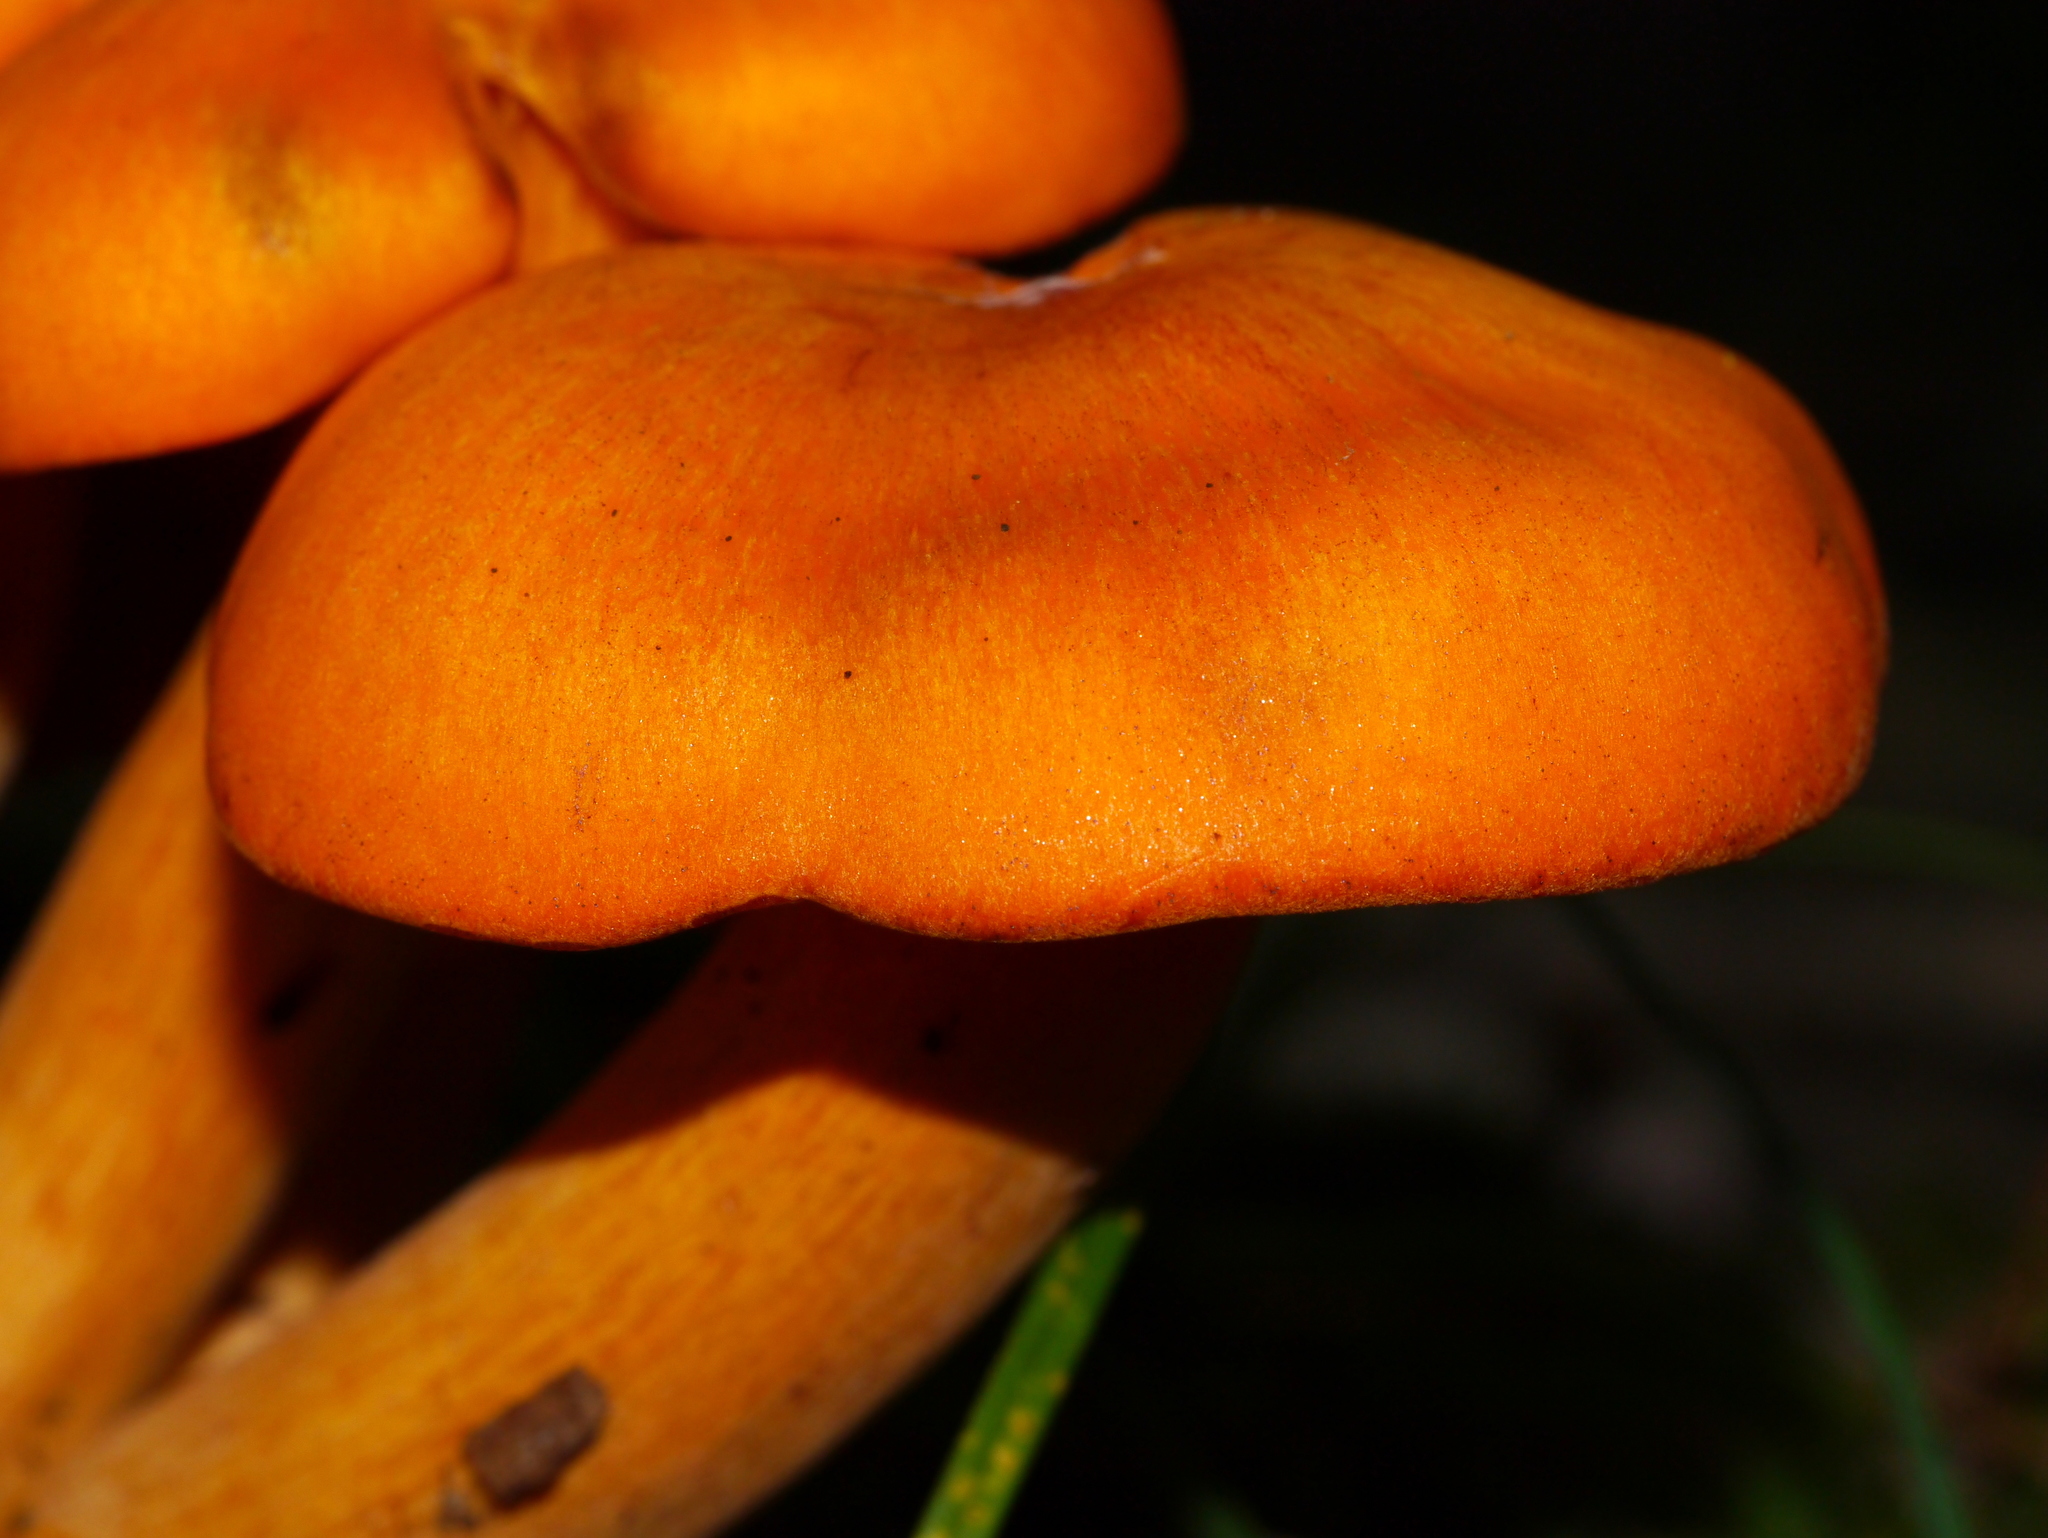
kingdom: Fungi
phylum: Basidiomycota
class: Agaricomycetes
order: Agaricales
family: Omphalotaceae
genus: Omphalotus
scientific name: Omphalotus illudens
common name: Jack o lantern
